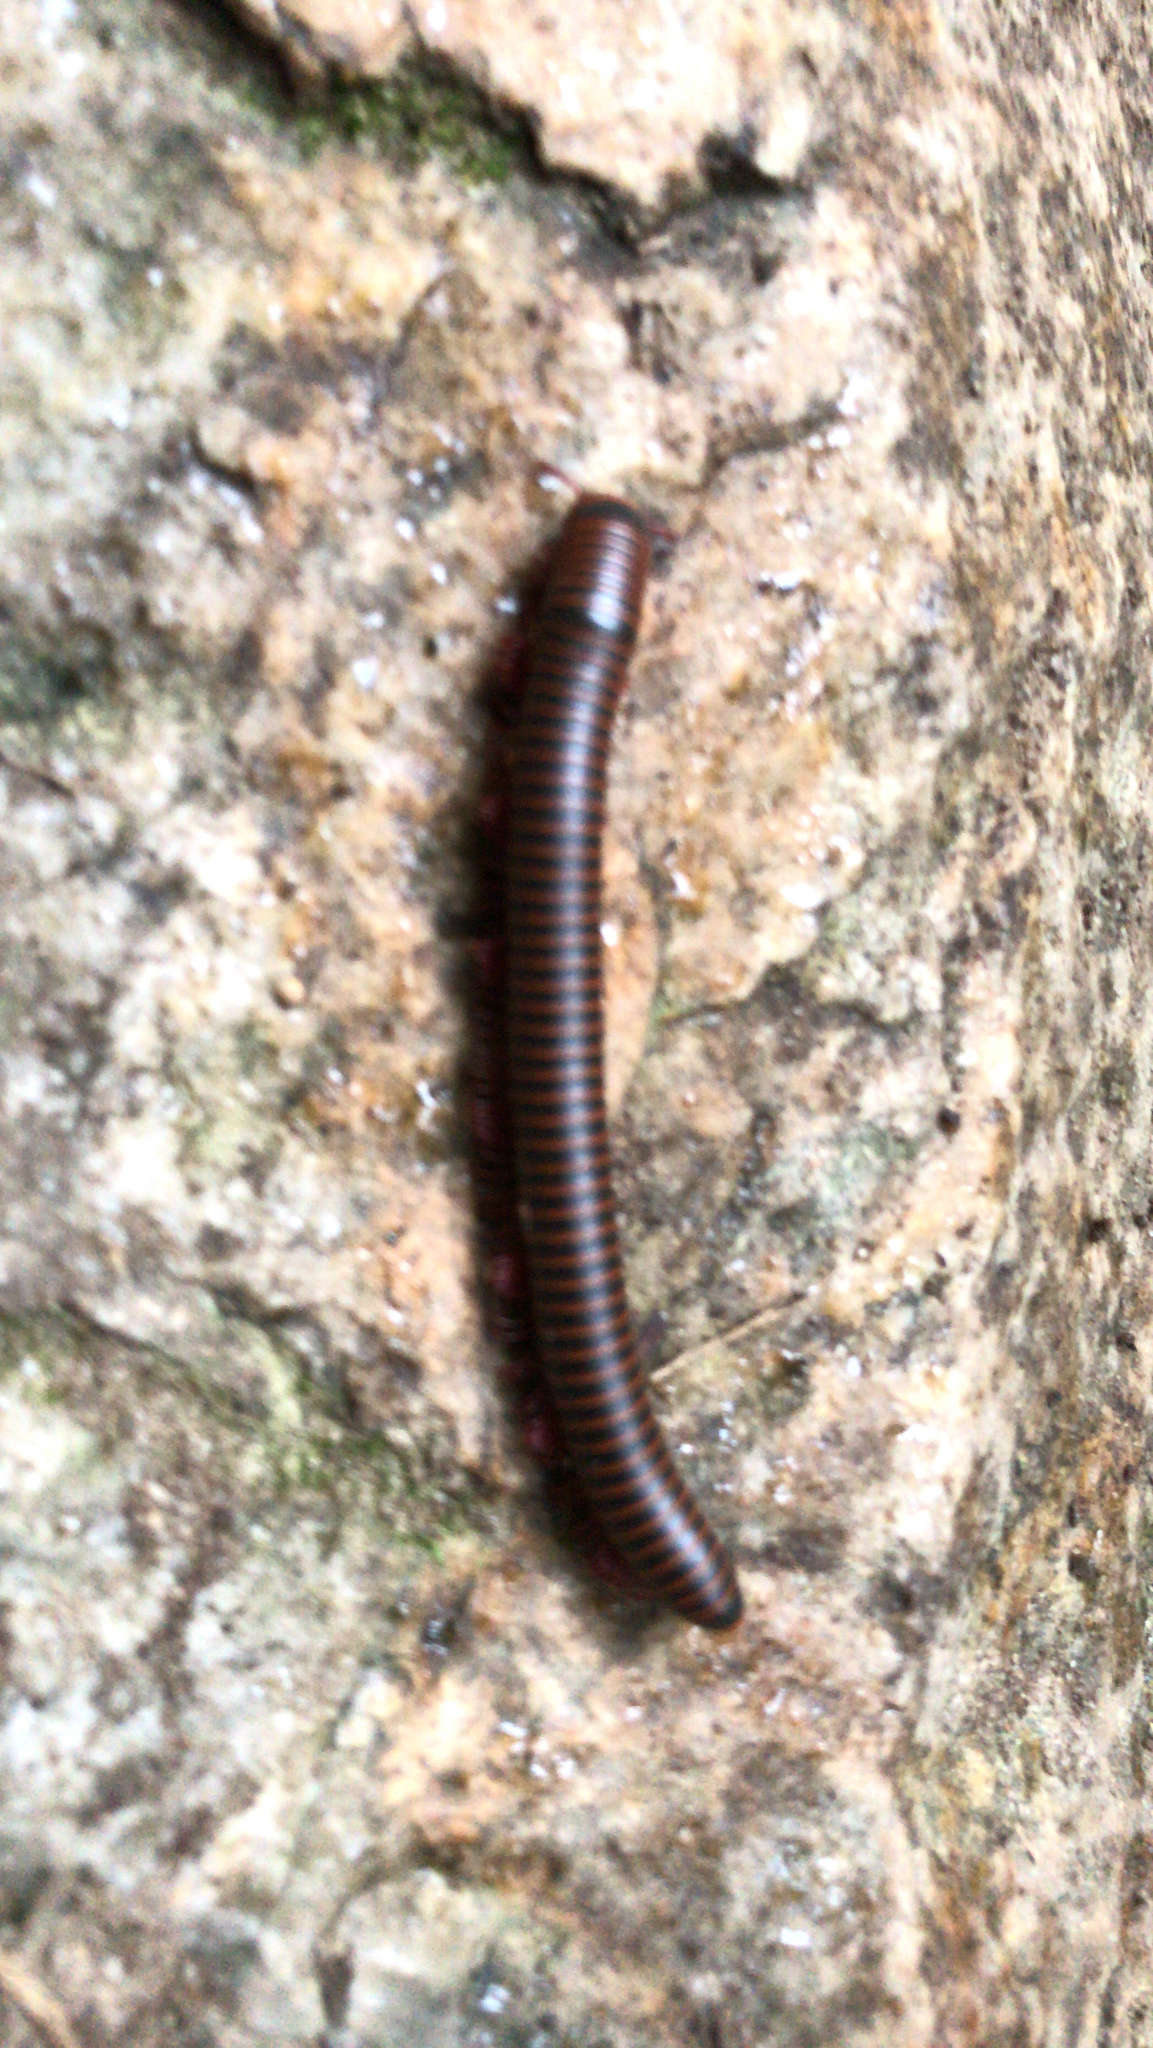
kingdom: Animalia
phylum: Arthropoda
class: Diplopoda
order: Spirobolida
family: Spirobolidae
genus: Narceus
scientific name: Narceus
